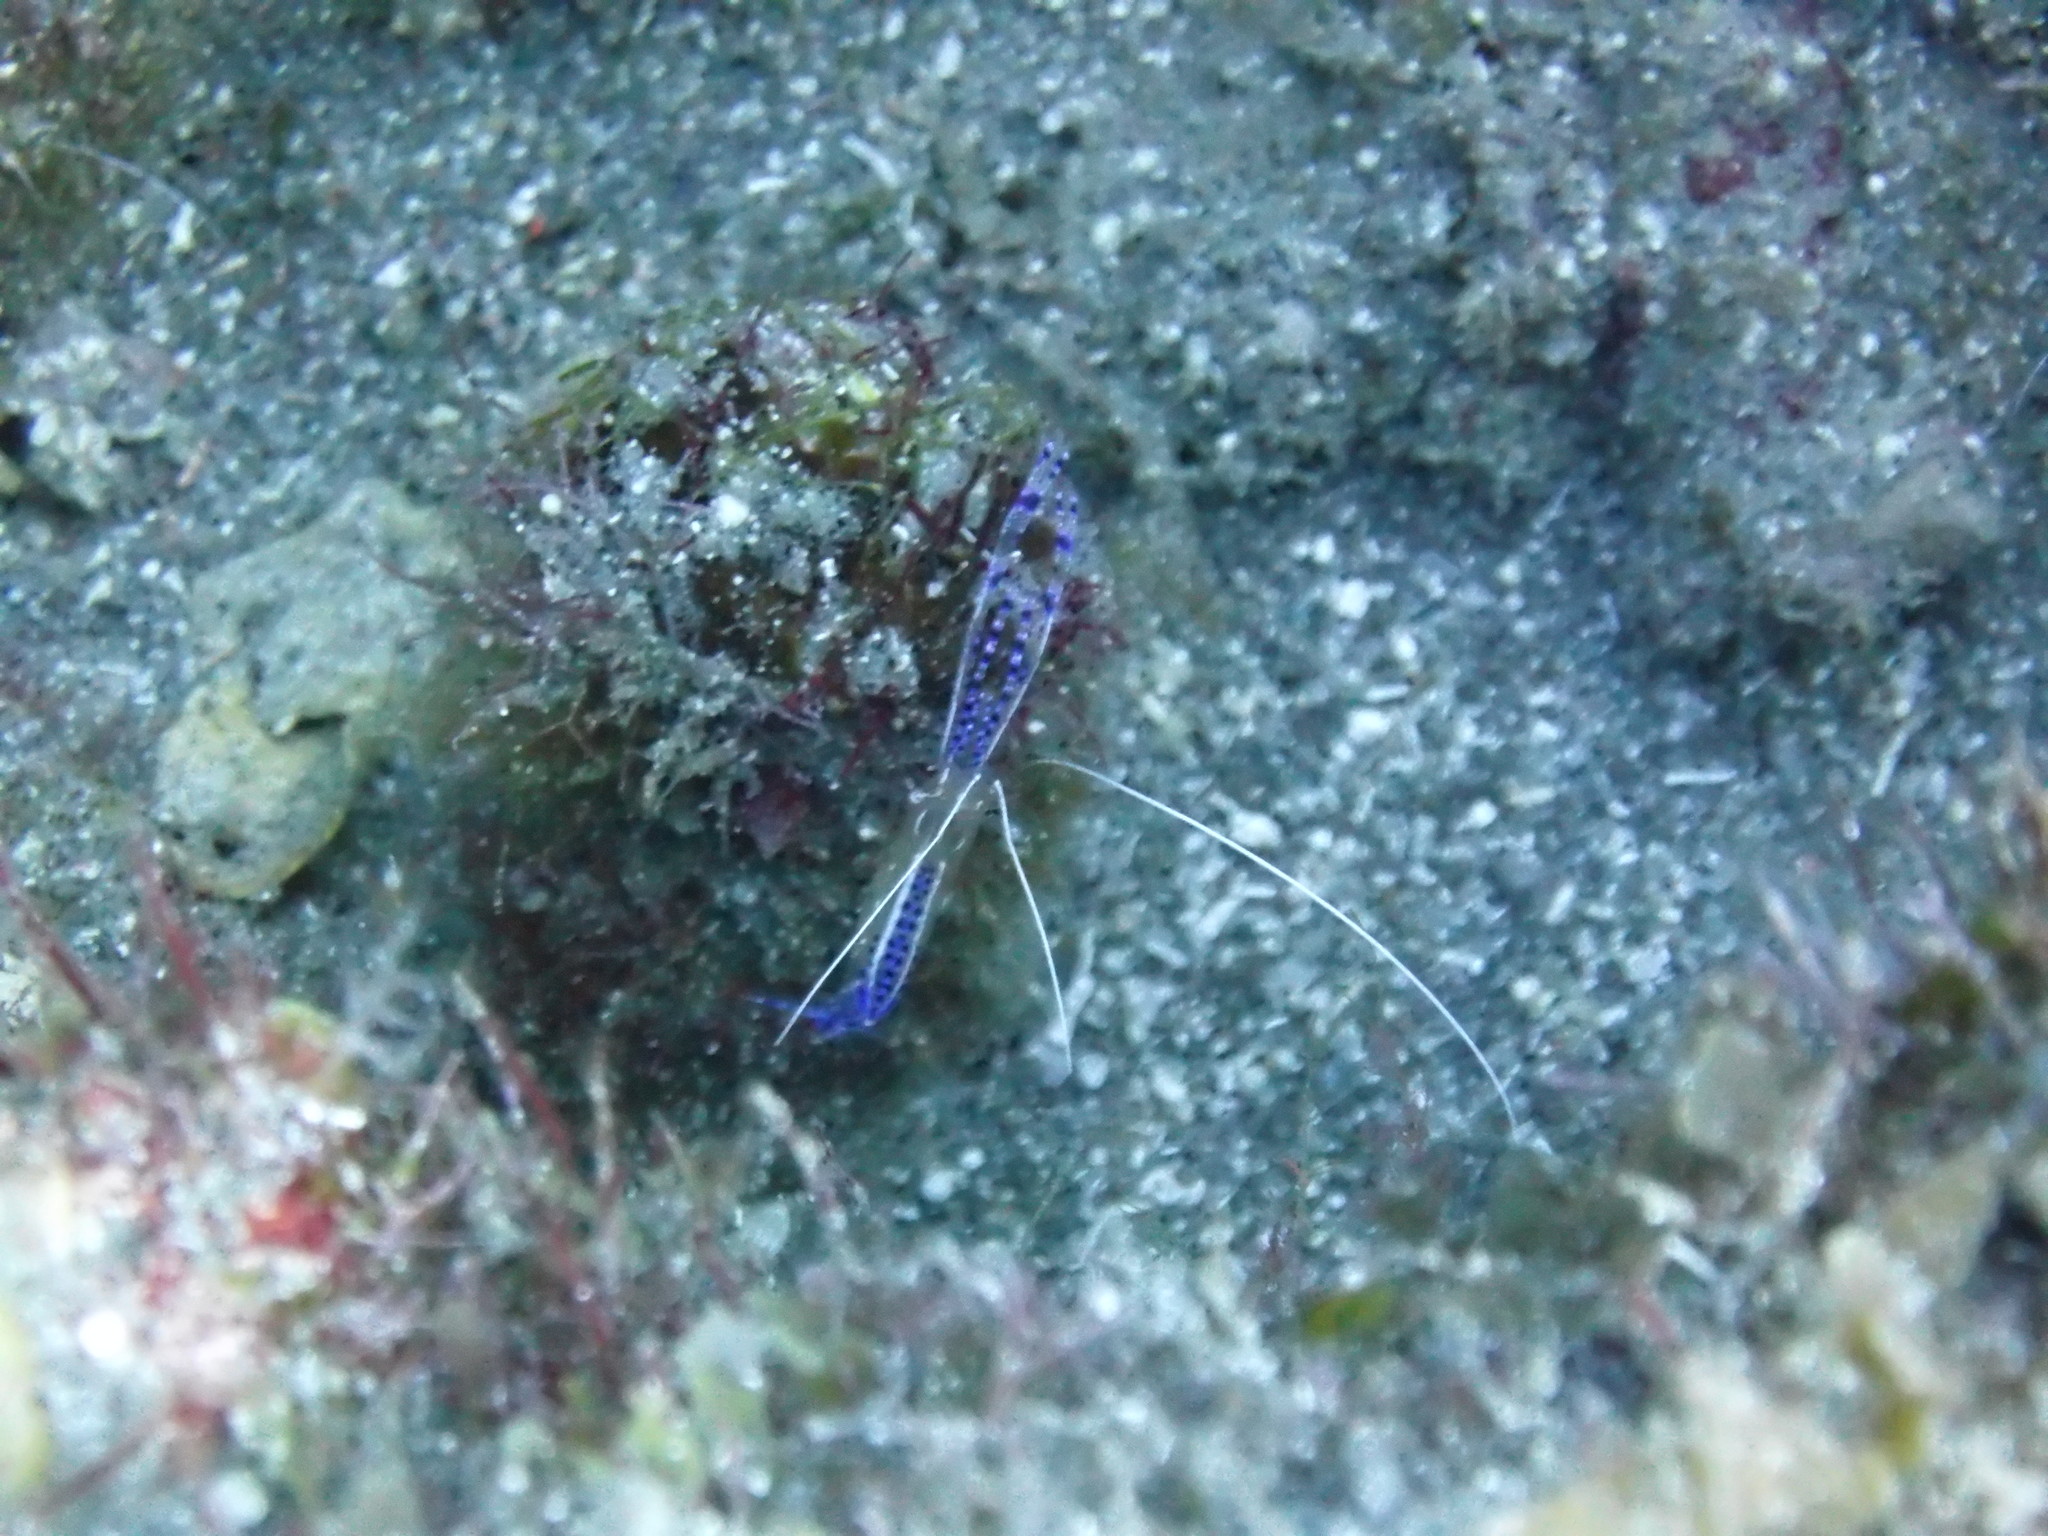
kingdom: Animalia
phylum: Arthropoda
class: Malacostraca
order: Decapoda
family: Palaemonidae
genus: Ancylomenes
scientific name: Ancylomenes pedersoni
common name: Pederson's cleaning shrimp
